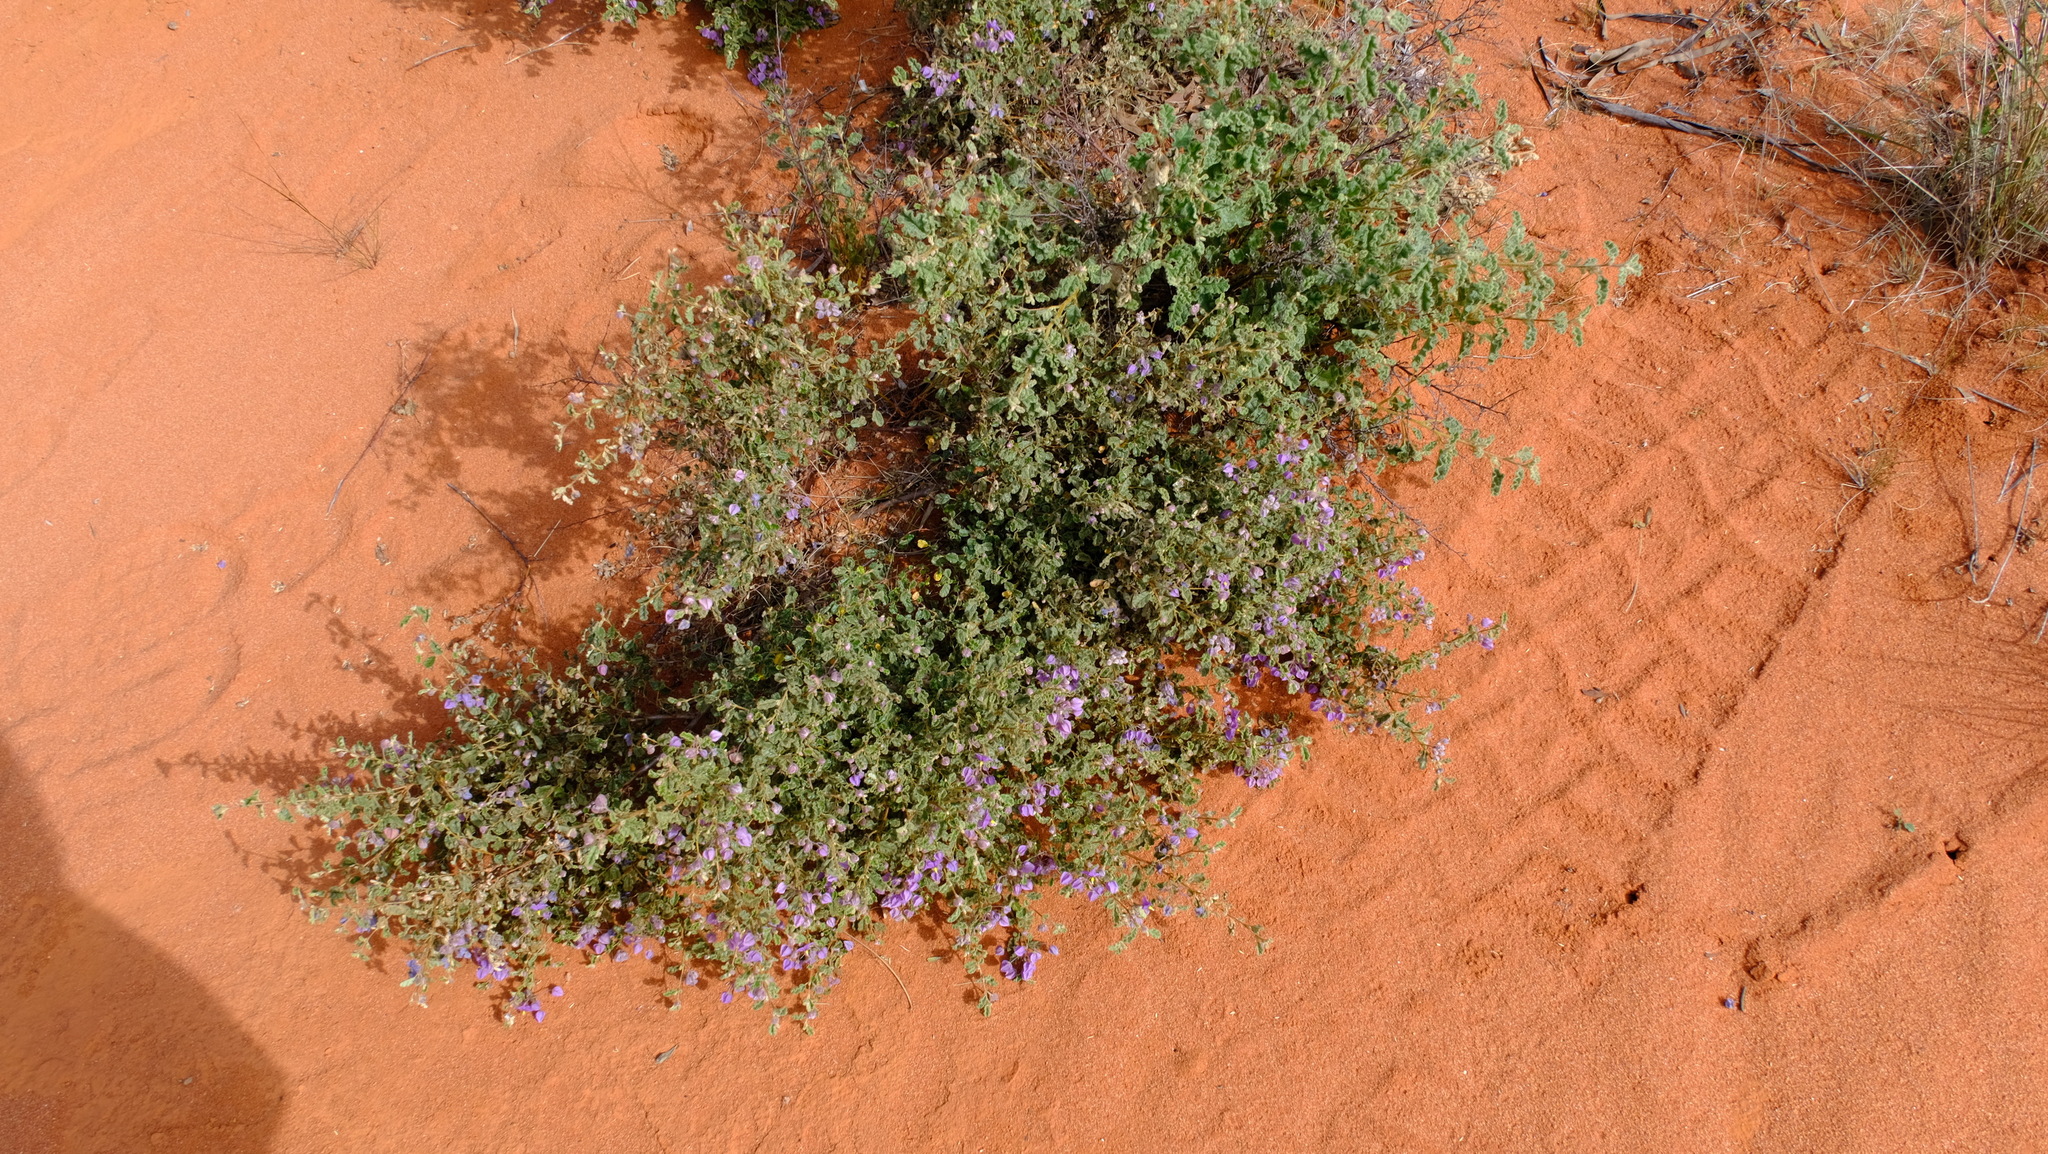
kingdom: Plantae
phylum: Tracheophyta
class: Magnoliopsida
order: Malvales
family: Malvaceae
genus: Seringia
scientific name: Seringia hermannifolia
